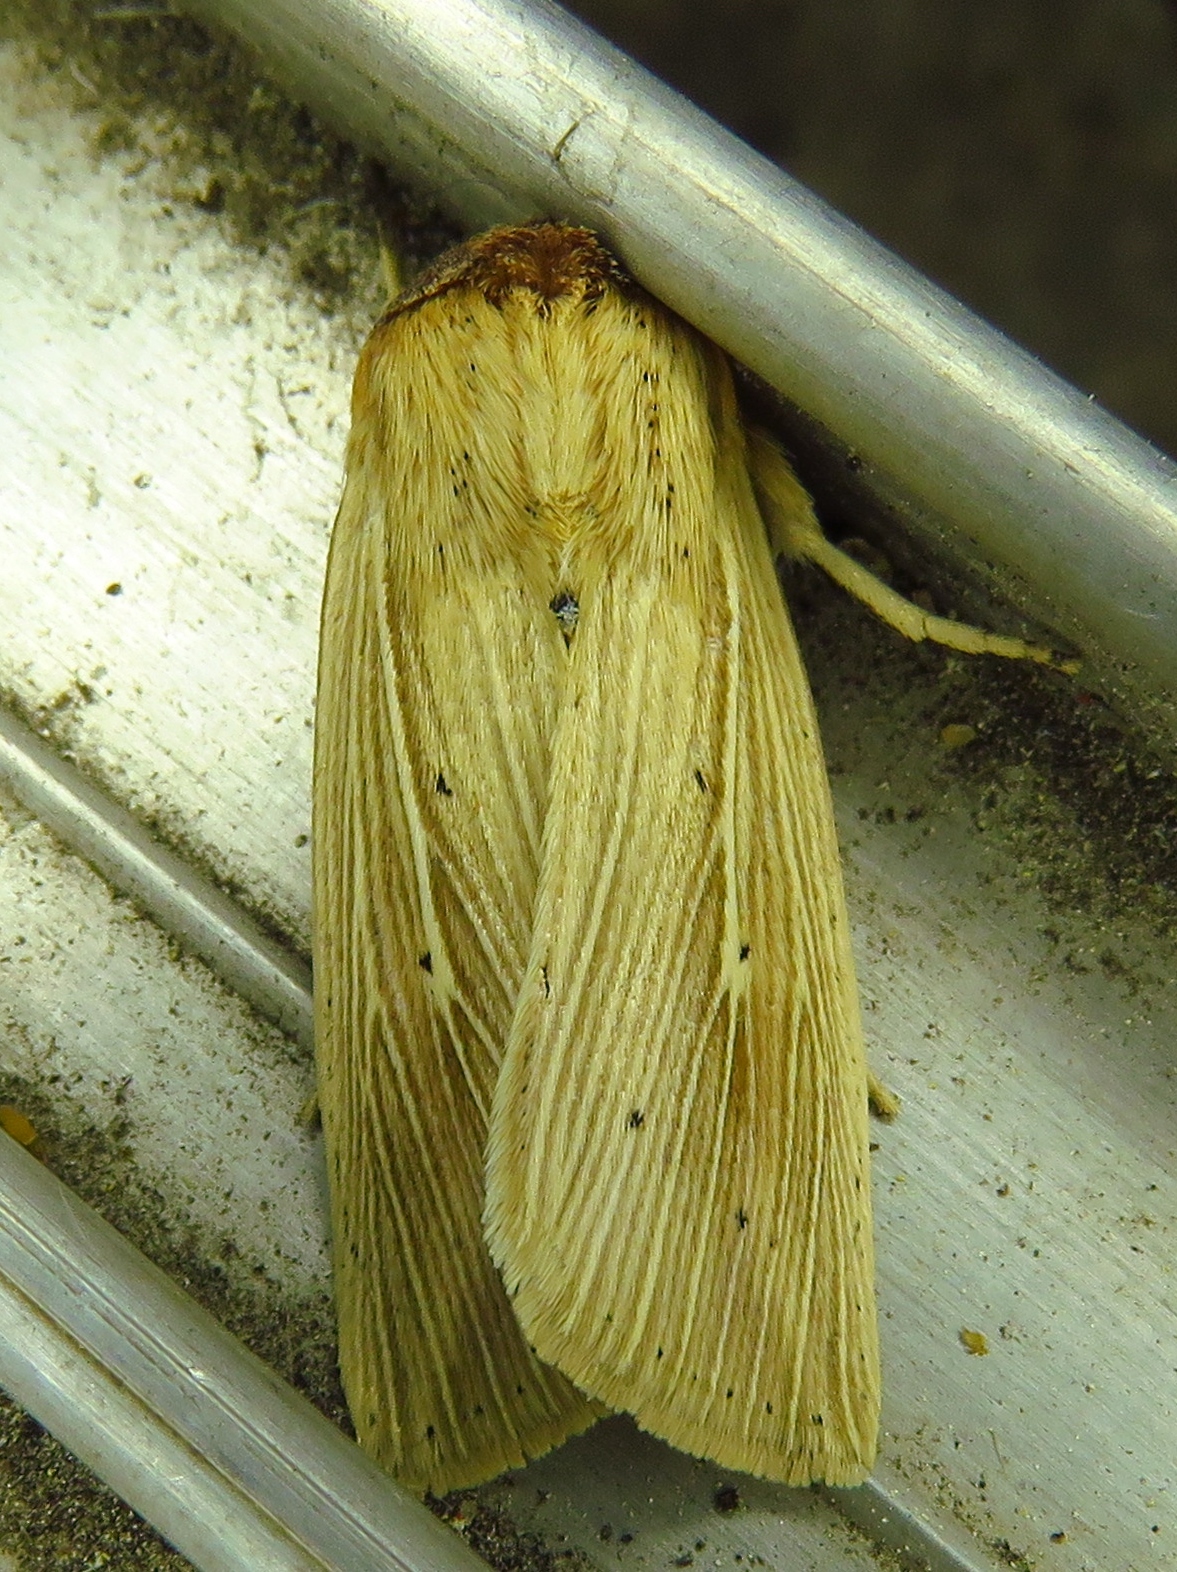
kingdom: Animalia
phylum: Arthropoda
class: Insecta
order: Lepidoptera
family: Noctuidae
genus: Leucania
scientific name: Leucania adjuta
